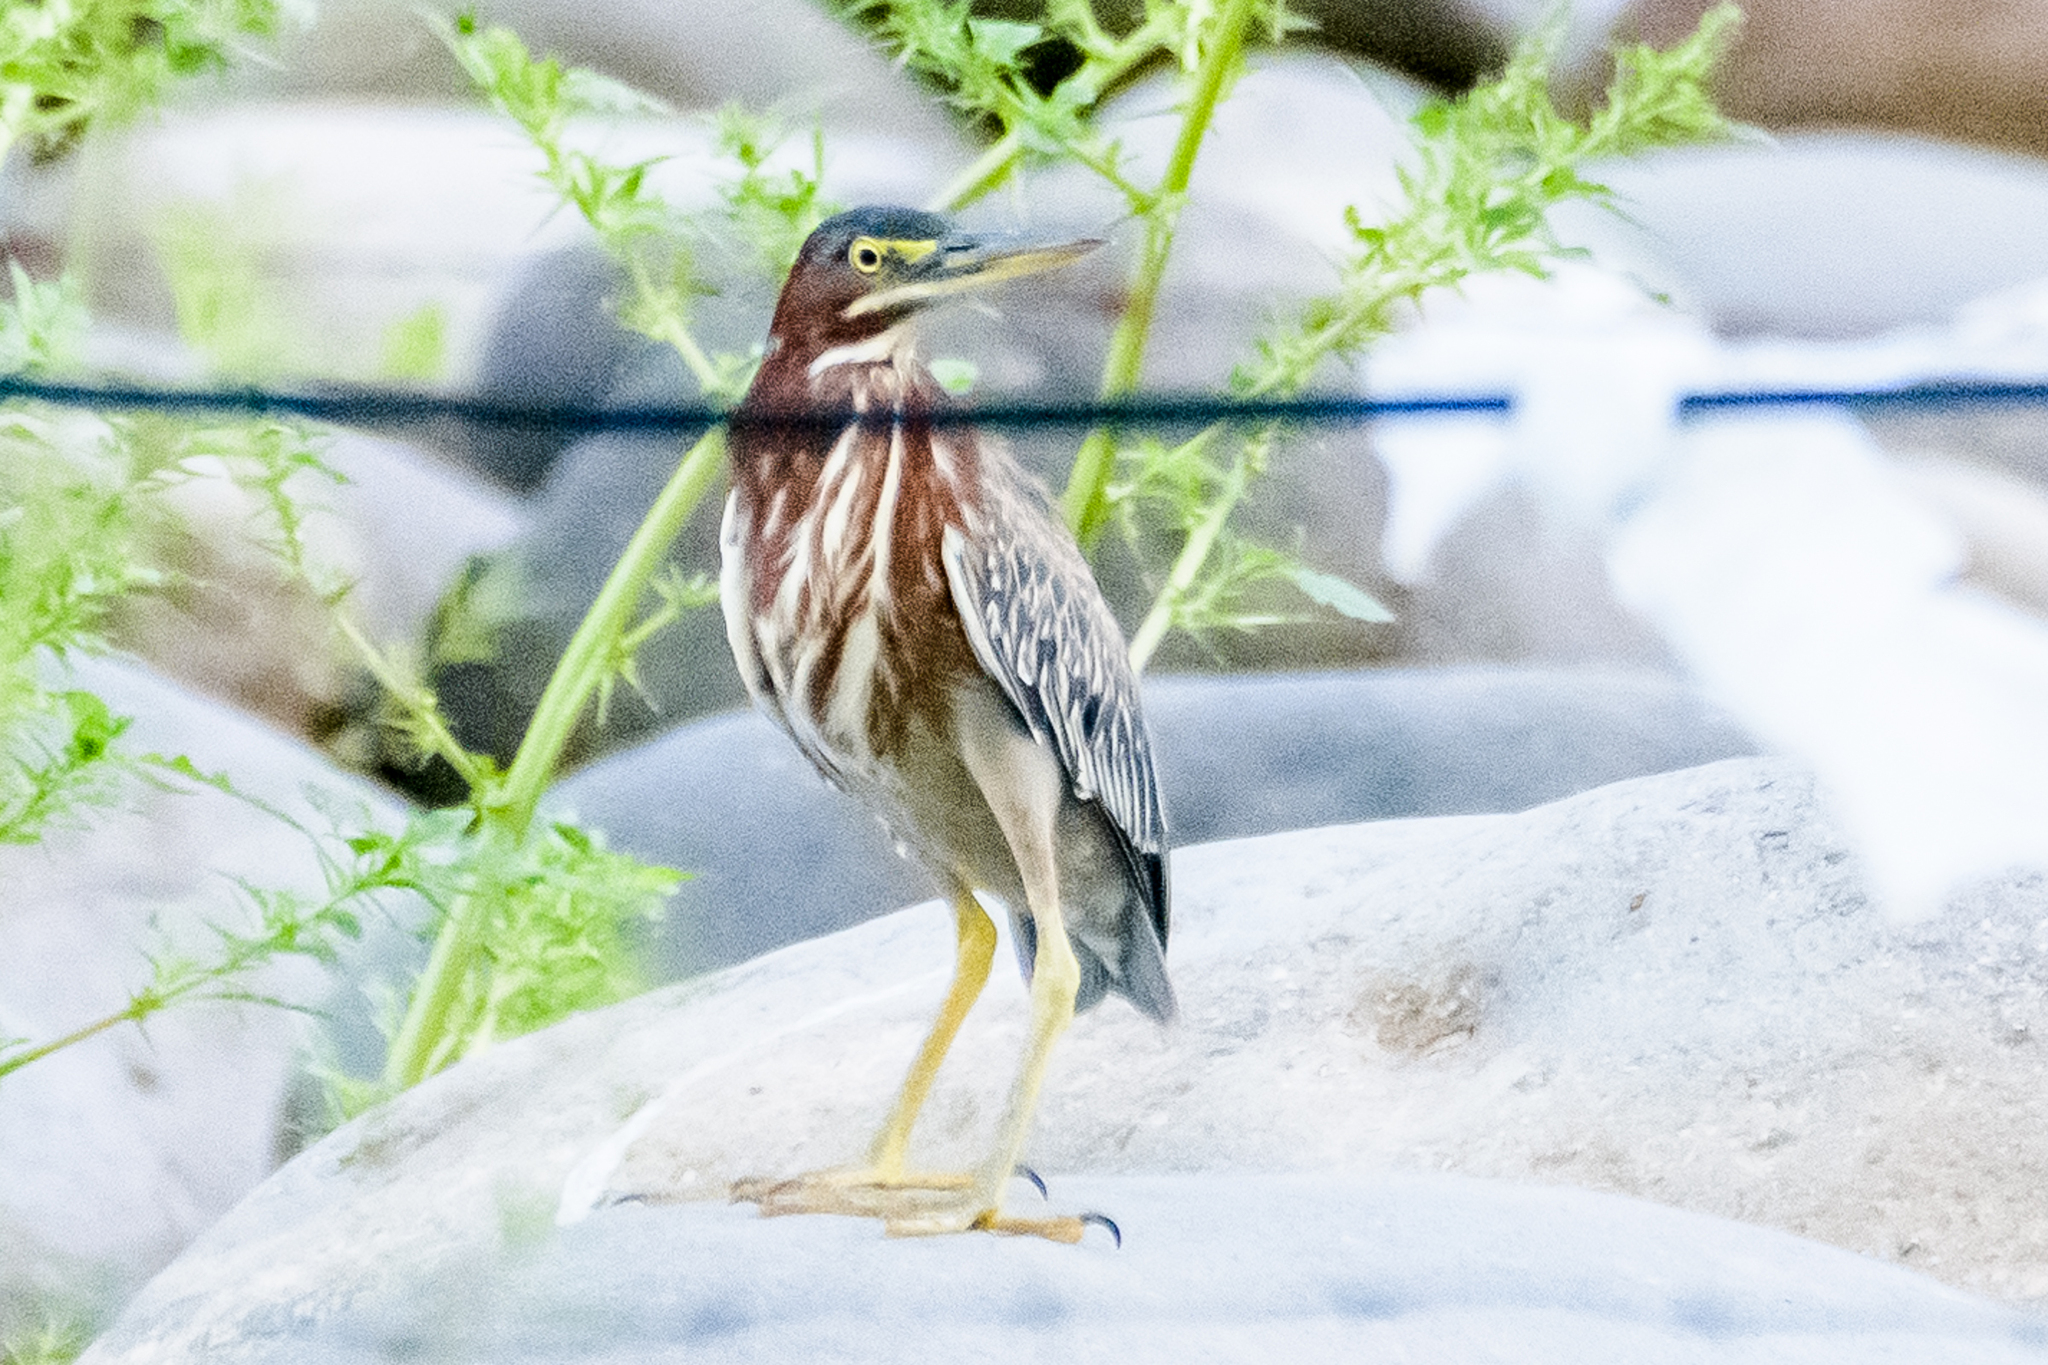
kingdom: Animalia
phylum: Chordata
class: Aves
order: Pelecaniformes
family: Ardeidae
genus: Butorides
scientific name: Butorides virescens
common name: Green heron
